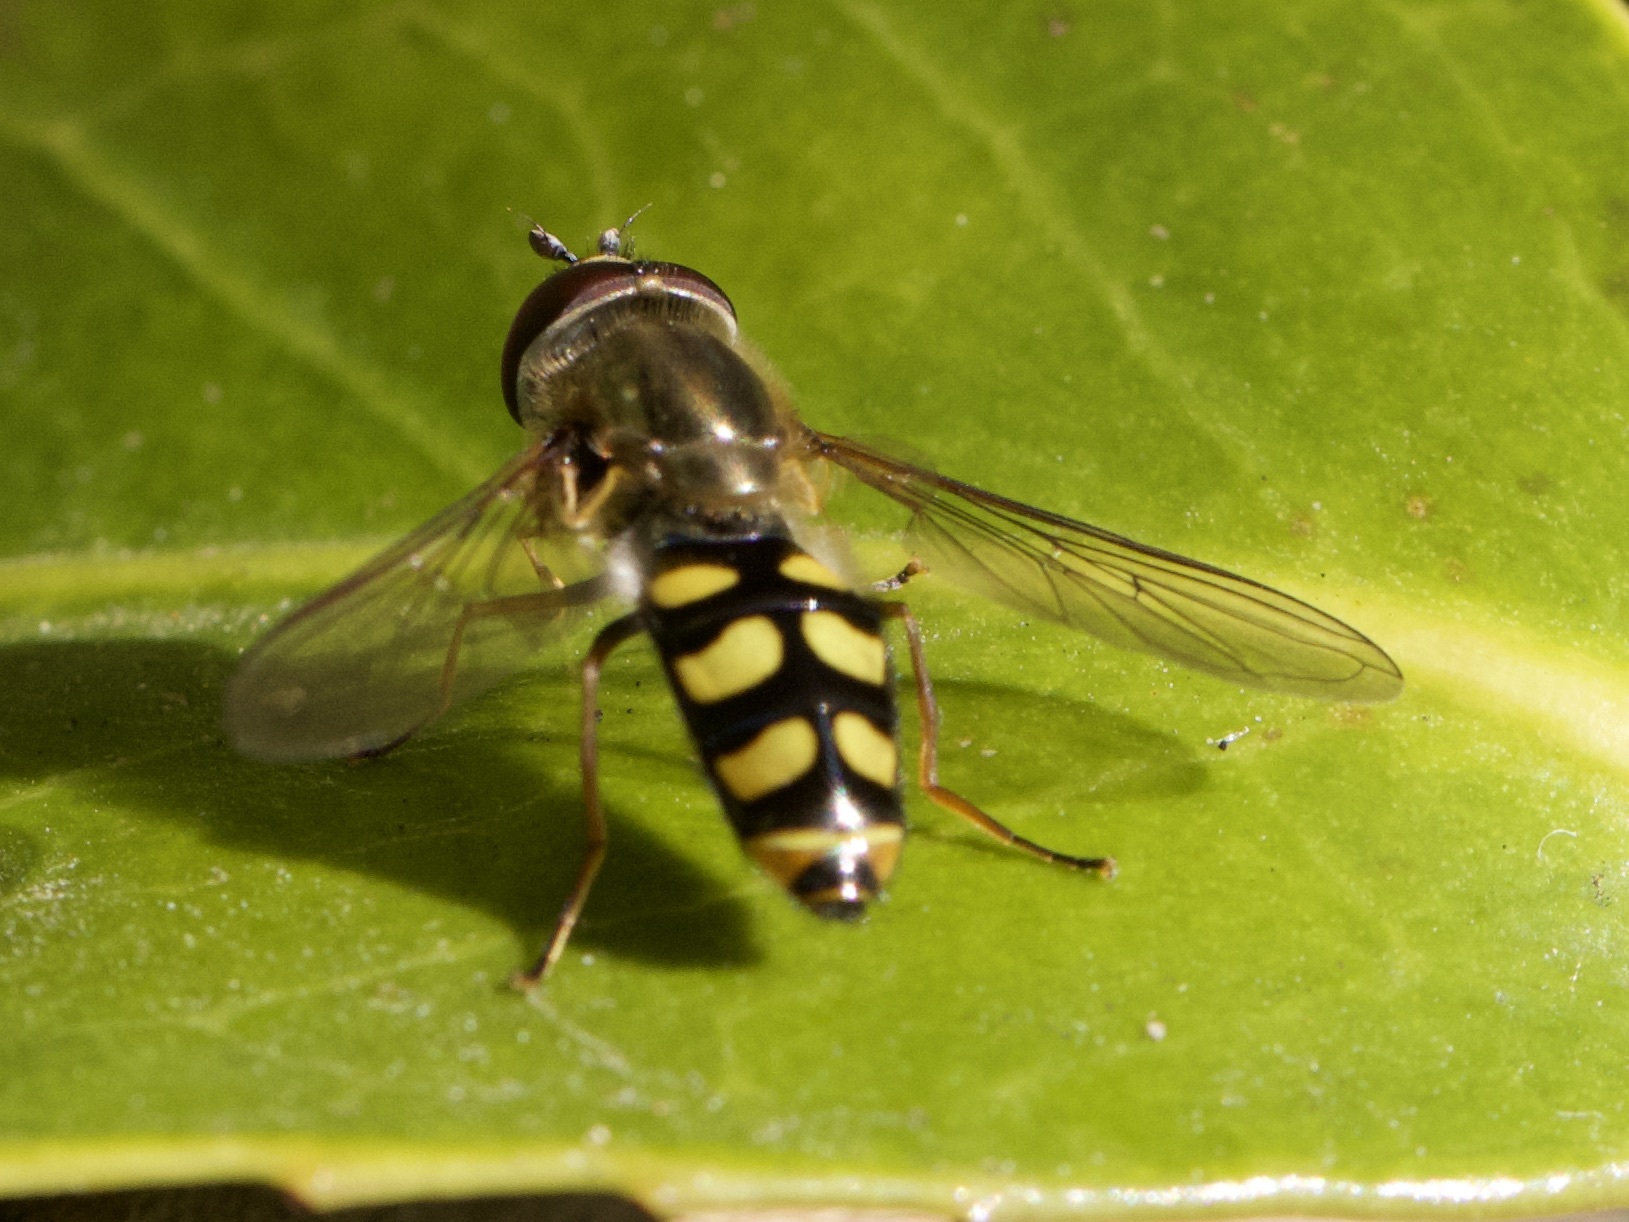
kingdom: Animalia
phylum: Arthropoda
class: Insecta
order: Diptera
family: Syrphidae
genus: Eupeodes
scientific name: Eupeodes
